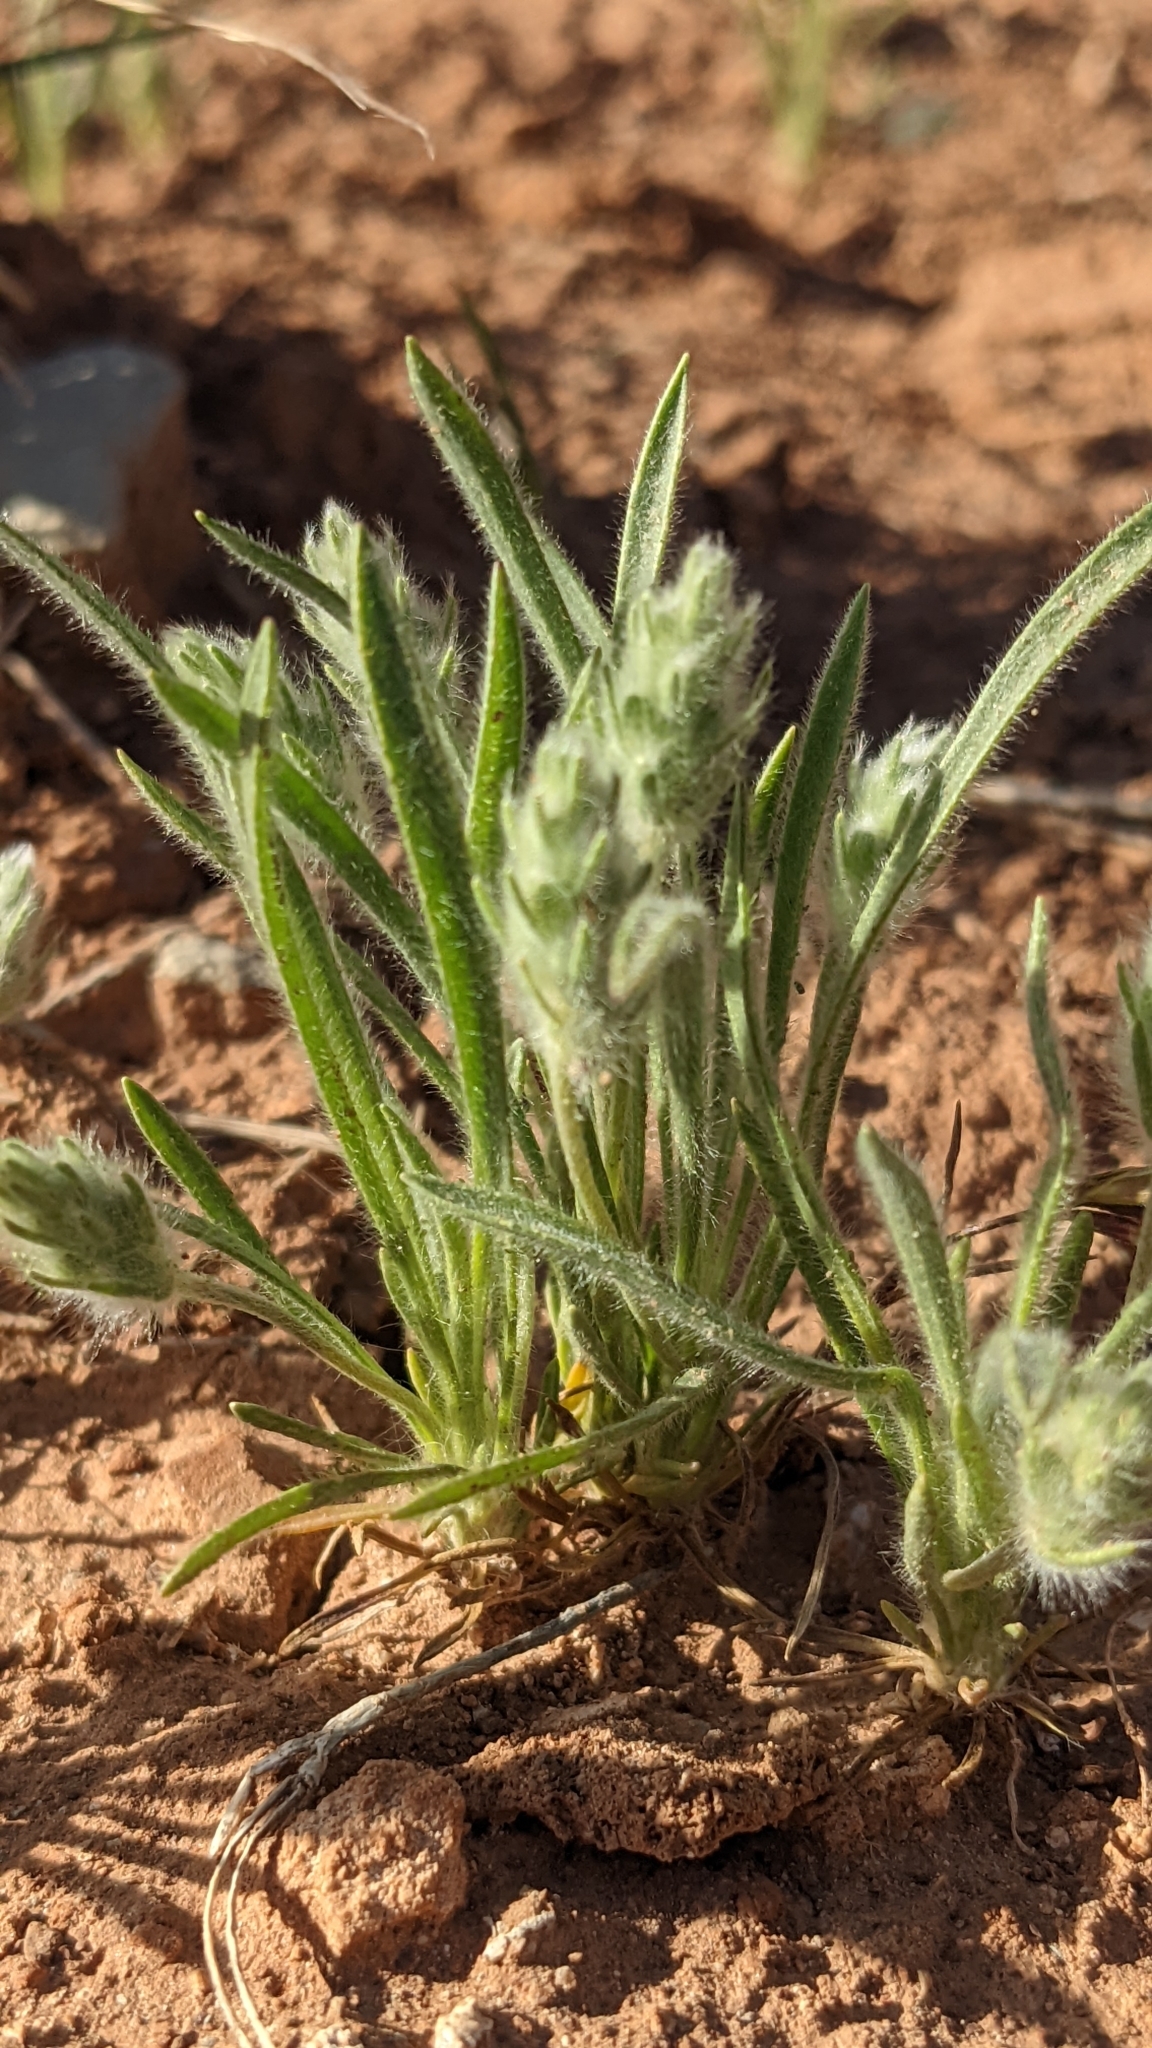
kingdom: Plantae
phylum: Tracheophyta
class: Magnoliopsida
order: Lamiales
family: Plantaginaceae
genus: Plantago
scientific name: Plantago patagonica
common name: Patagonia indian-wheat
